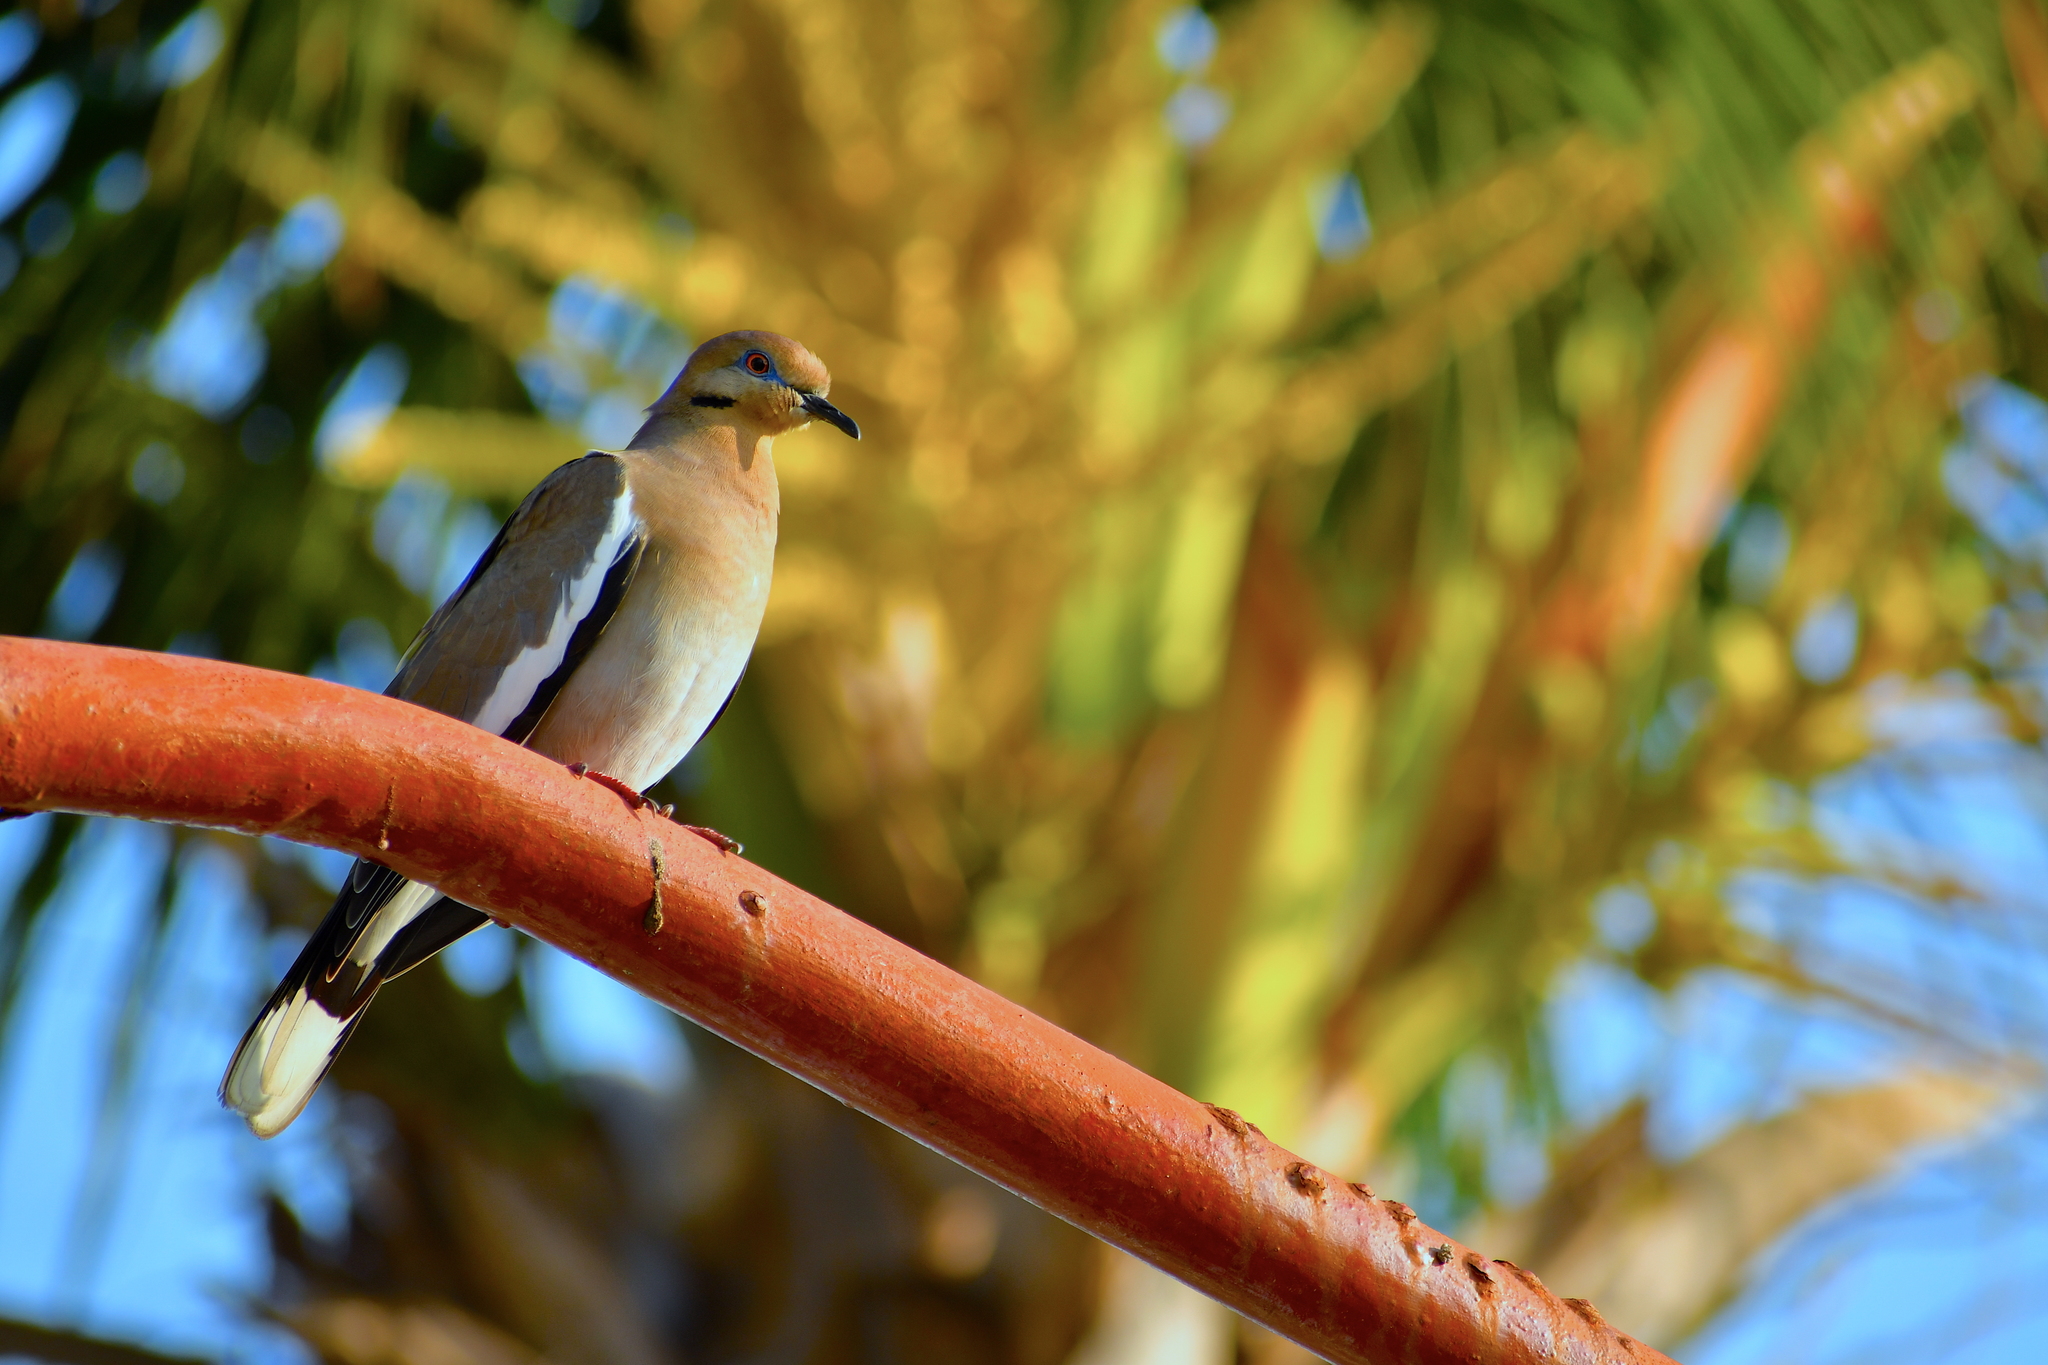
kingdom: Animalia
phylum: Chordata
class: Aves
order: Columbiformes
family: Columbidae
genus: Zenaida
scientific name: Zenaida asiatica
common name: White-winged dove
